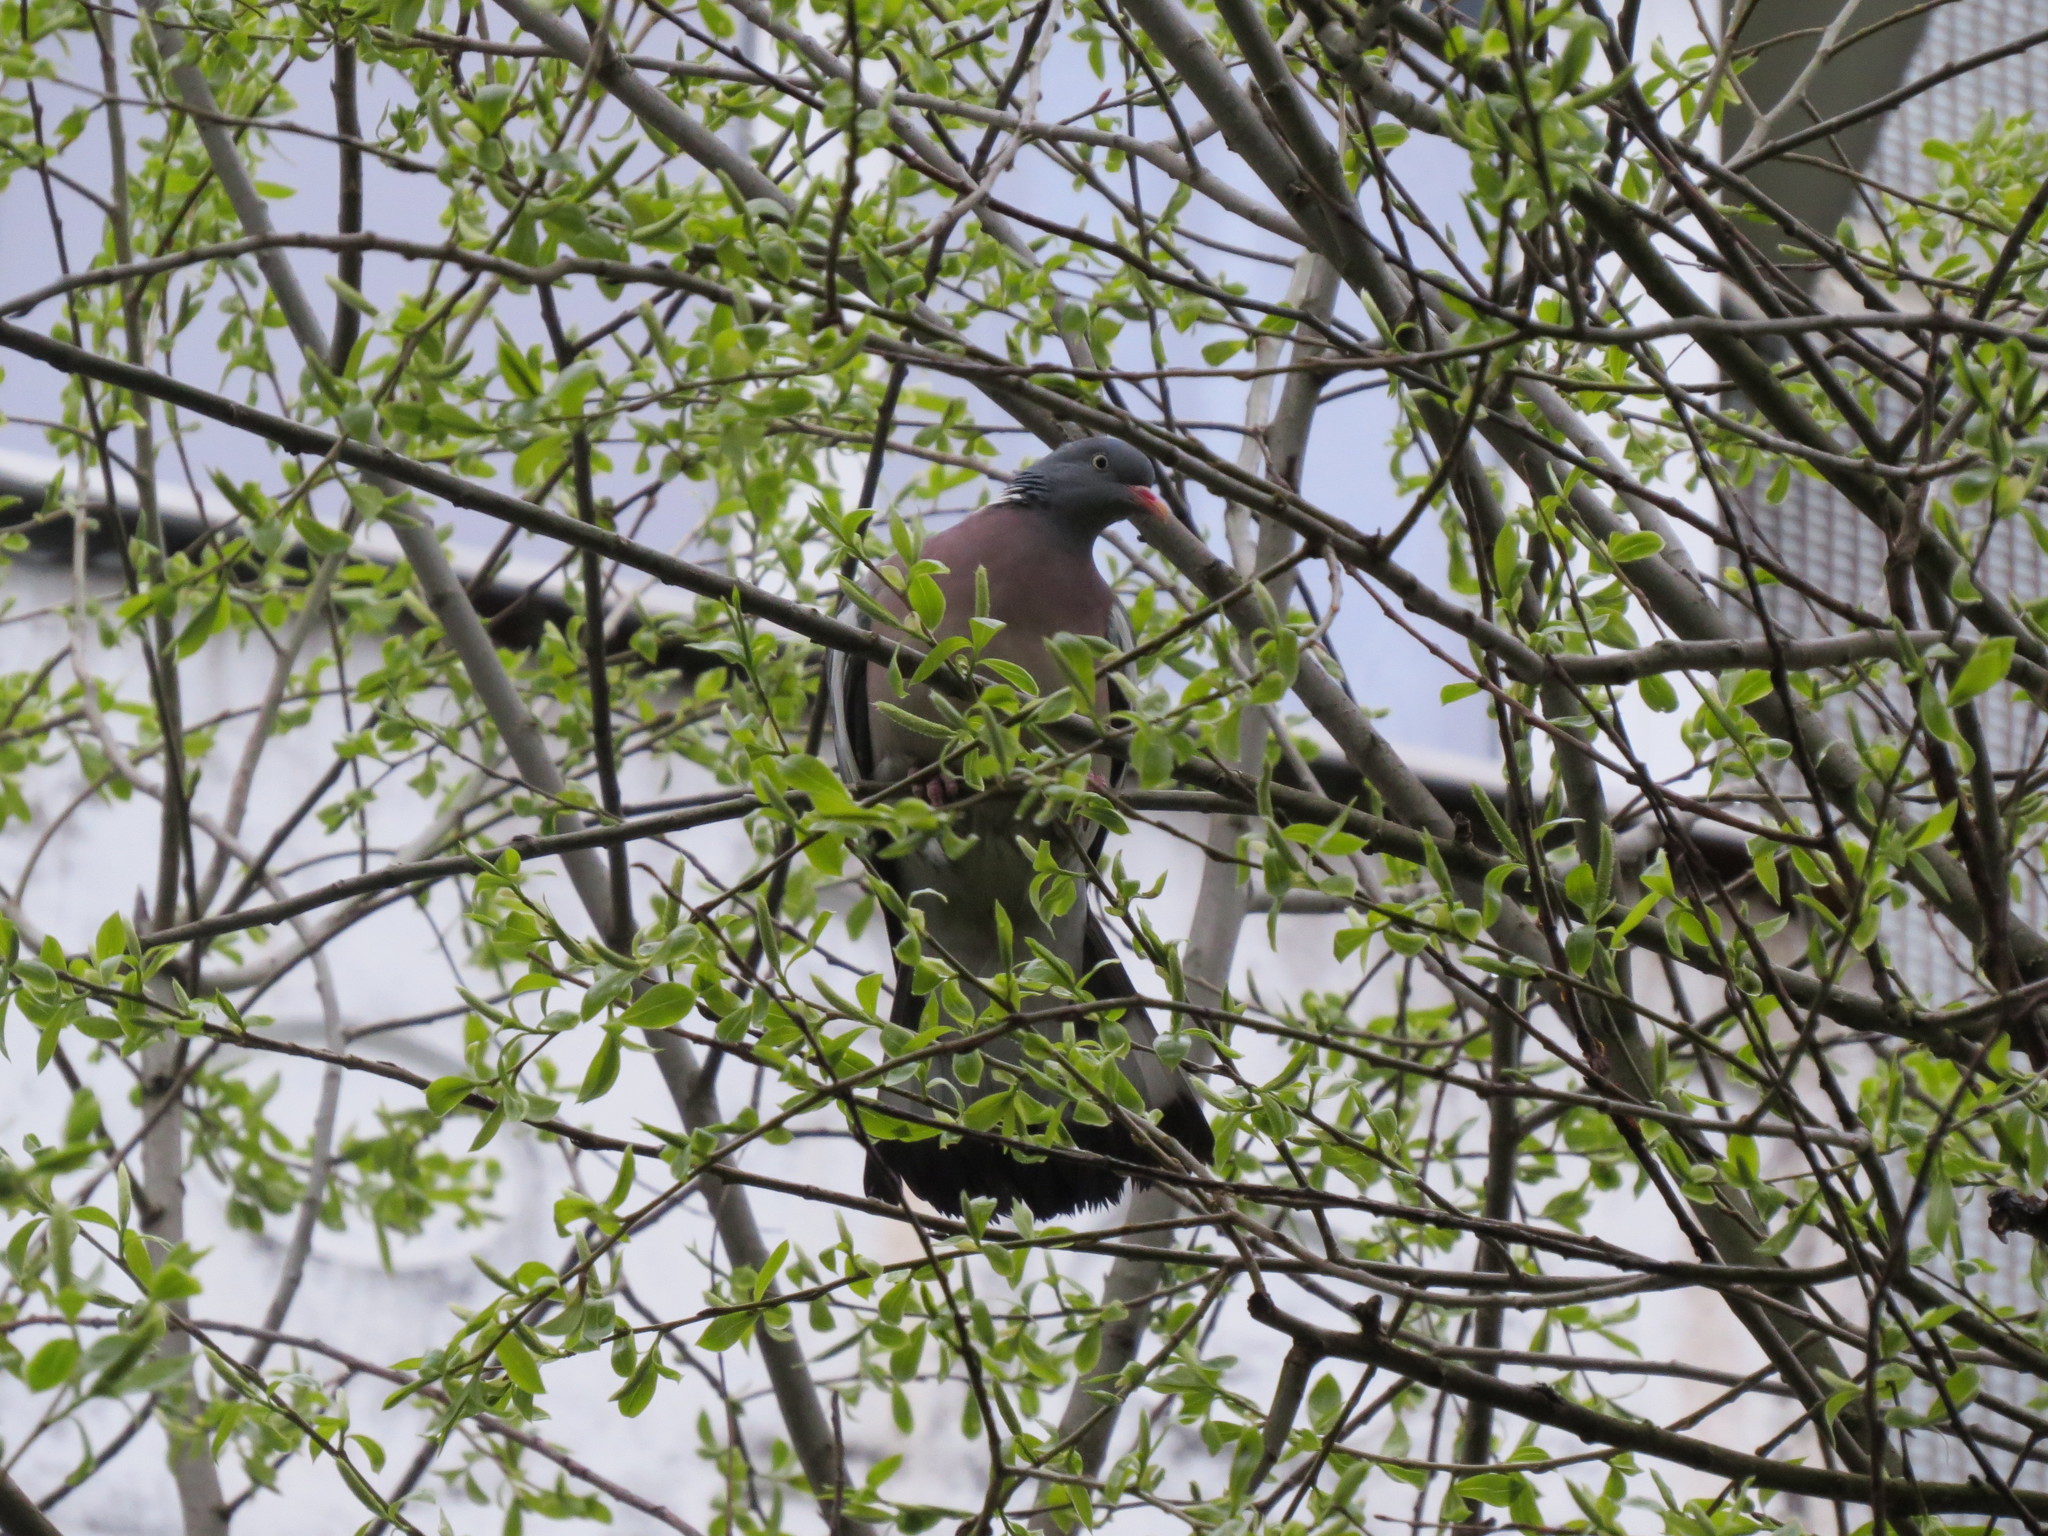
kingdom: Animalia
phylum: Chordata
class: Aves
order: Columbiformes
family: Columbidae
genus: Columba
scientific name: Columba palumbus
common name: Common wood pigeon
